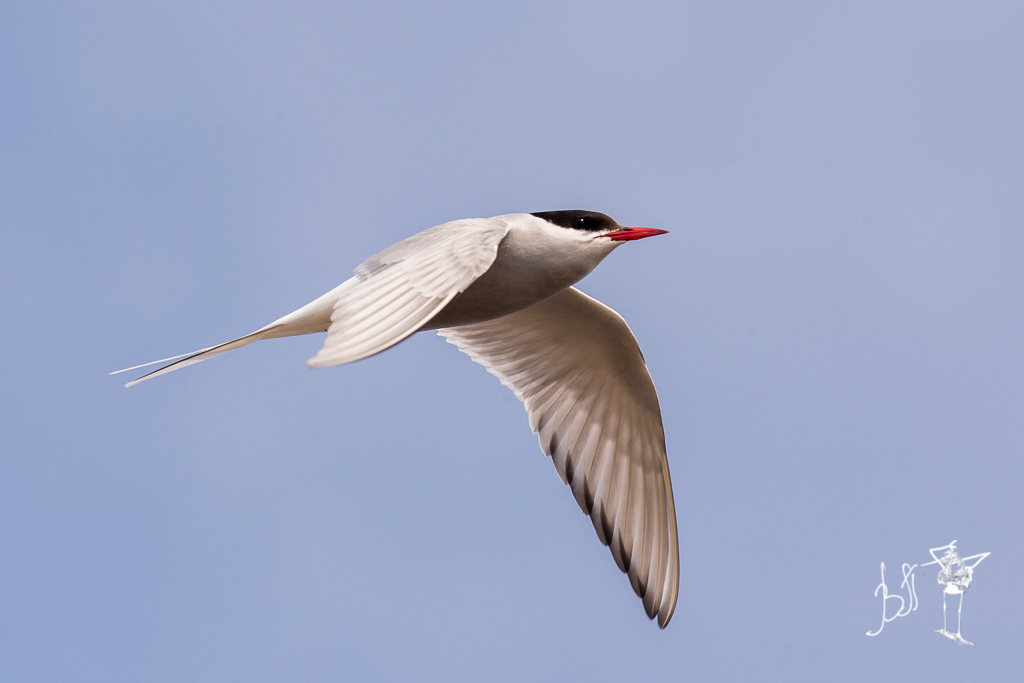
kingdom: Animalia
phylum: Chordata
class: Aves
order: Charadriiformes
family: Laridae
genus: Sterna
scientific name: Sterna paradisaea
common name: Arctic tern
